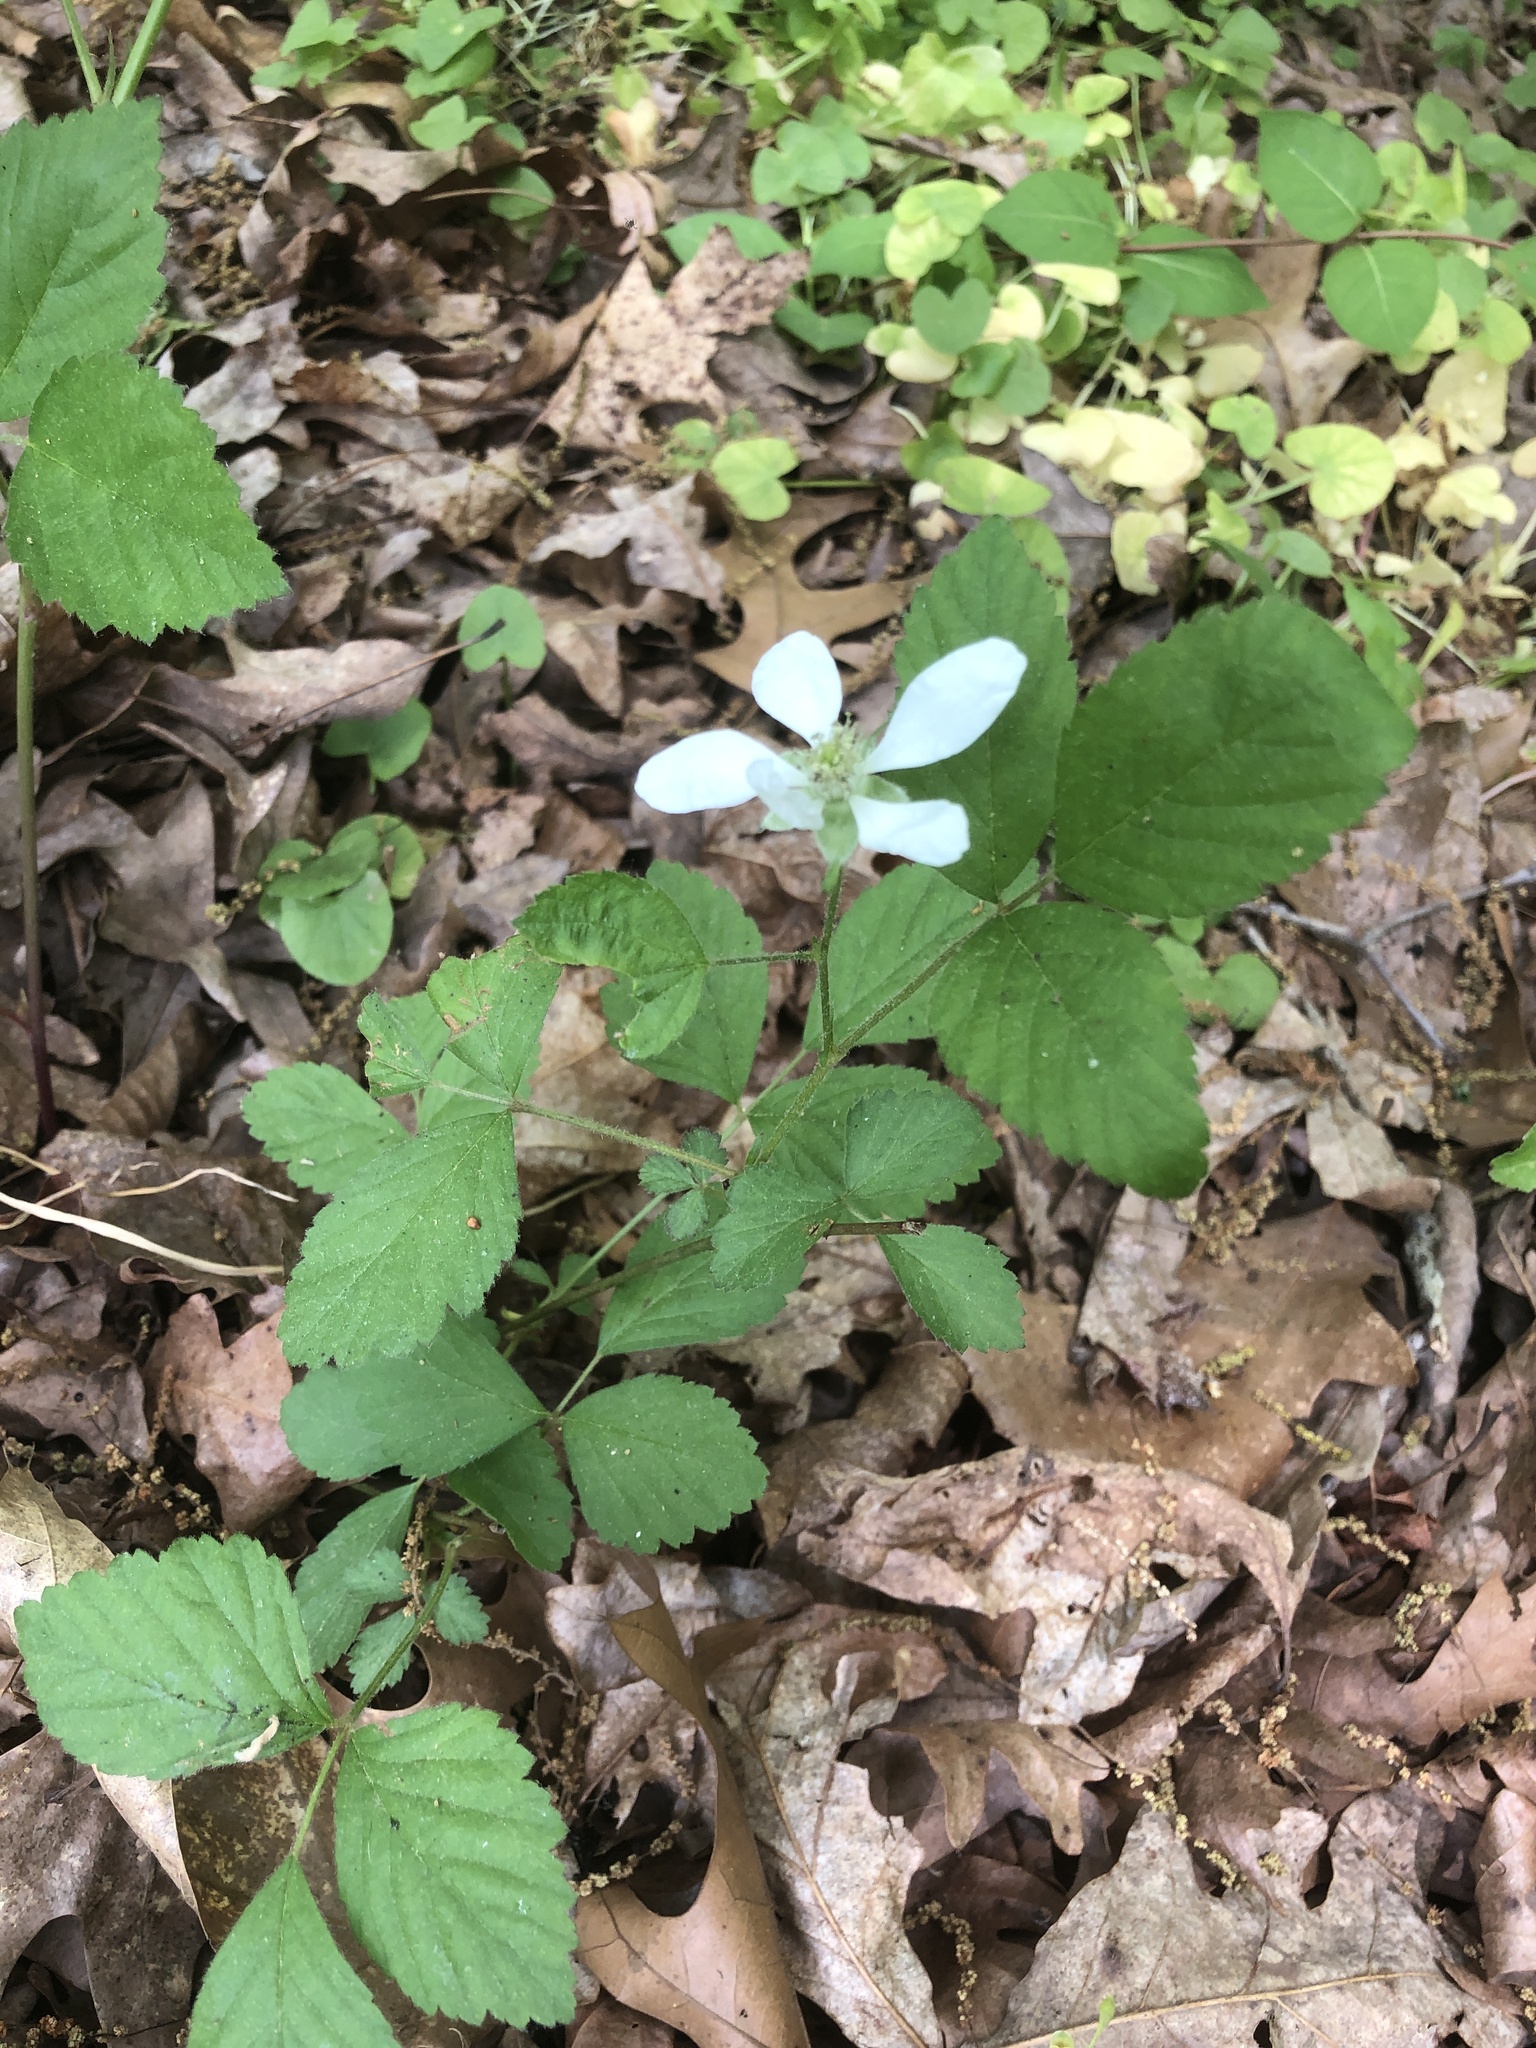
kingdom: Plantae
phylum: Tracheophyta
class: Magnoliopsida
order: Rosales
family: Rosaceae
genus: Rubus
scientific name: Rubus flagellaris
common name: American dewberry
